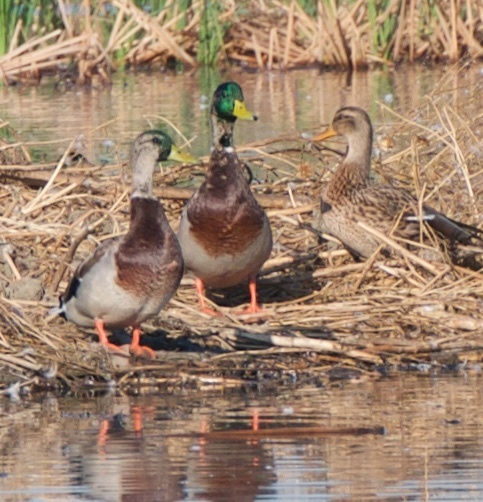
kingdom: Animalia
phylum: Chordata
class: Aves
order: Anseriformes
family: Anatidae
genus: Anas
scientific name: Anas platyrhynchos
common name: Mallard
